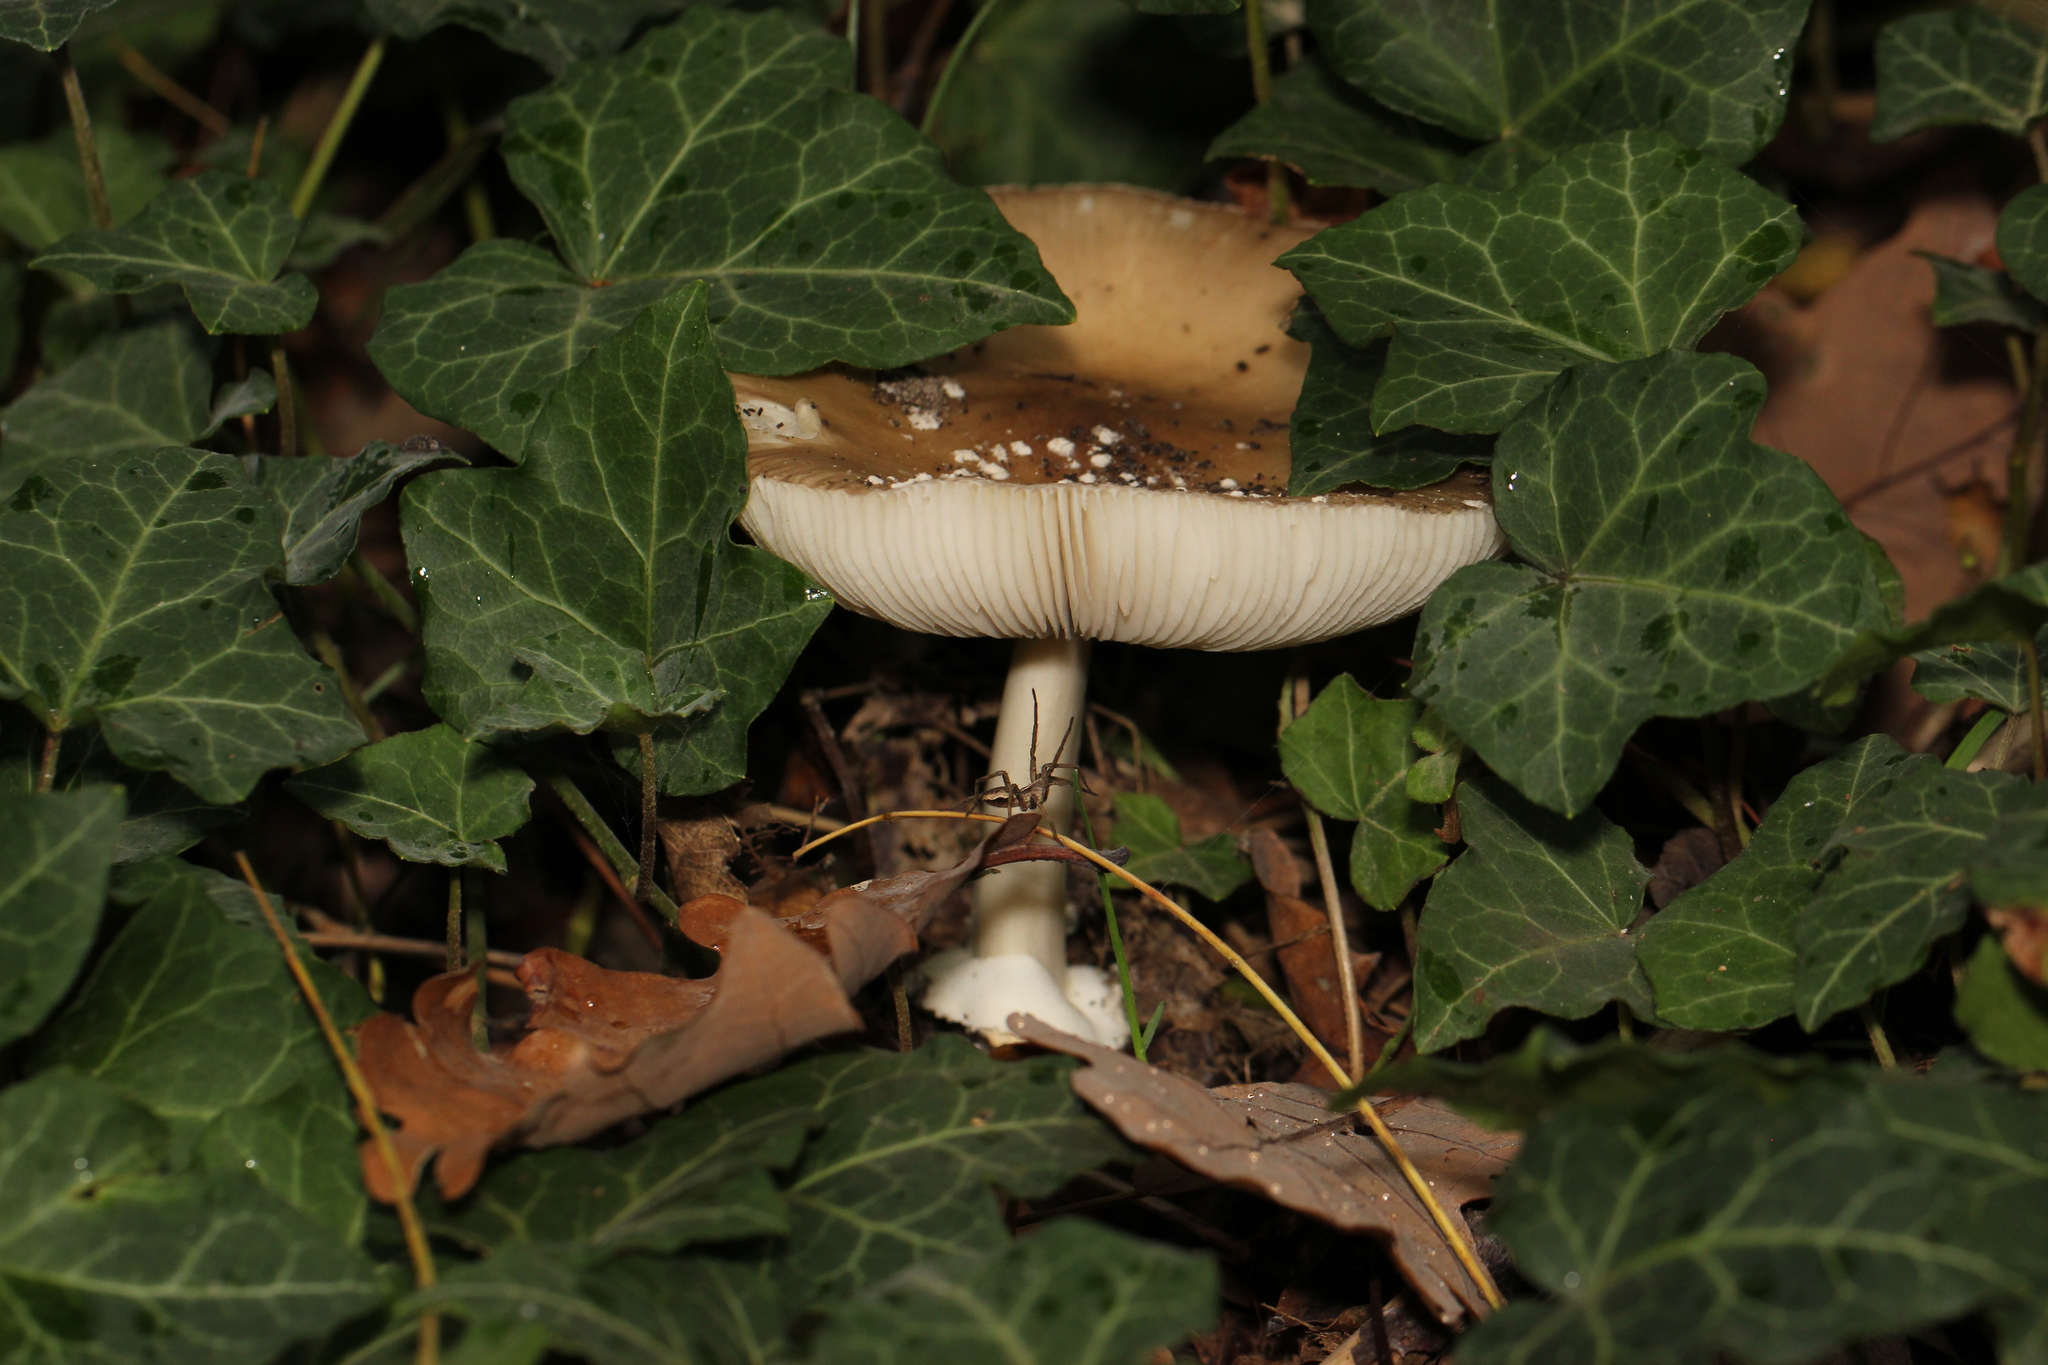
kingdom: Fungi
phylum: Basidiomycota
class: Agaricomycetes
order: Agaricales
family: Amanitaceae
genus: Amanita
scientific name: Amanita pantherina
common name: Panthercap
